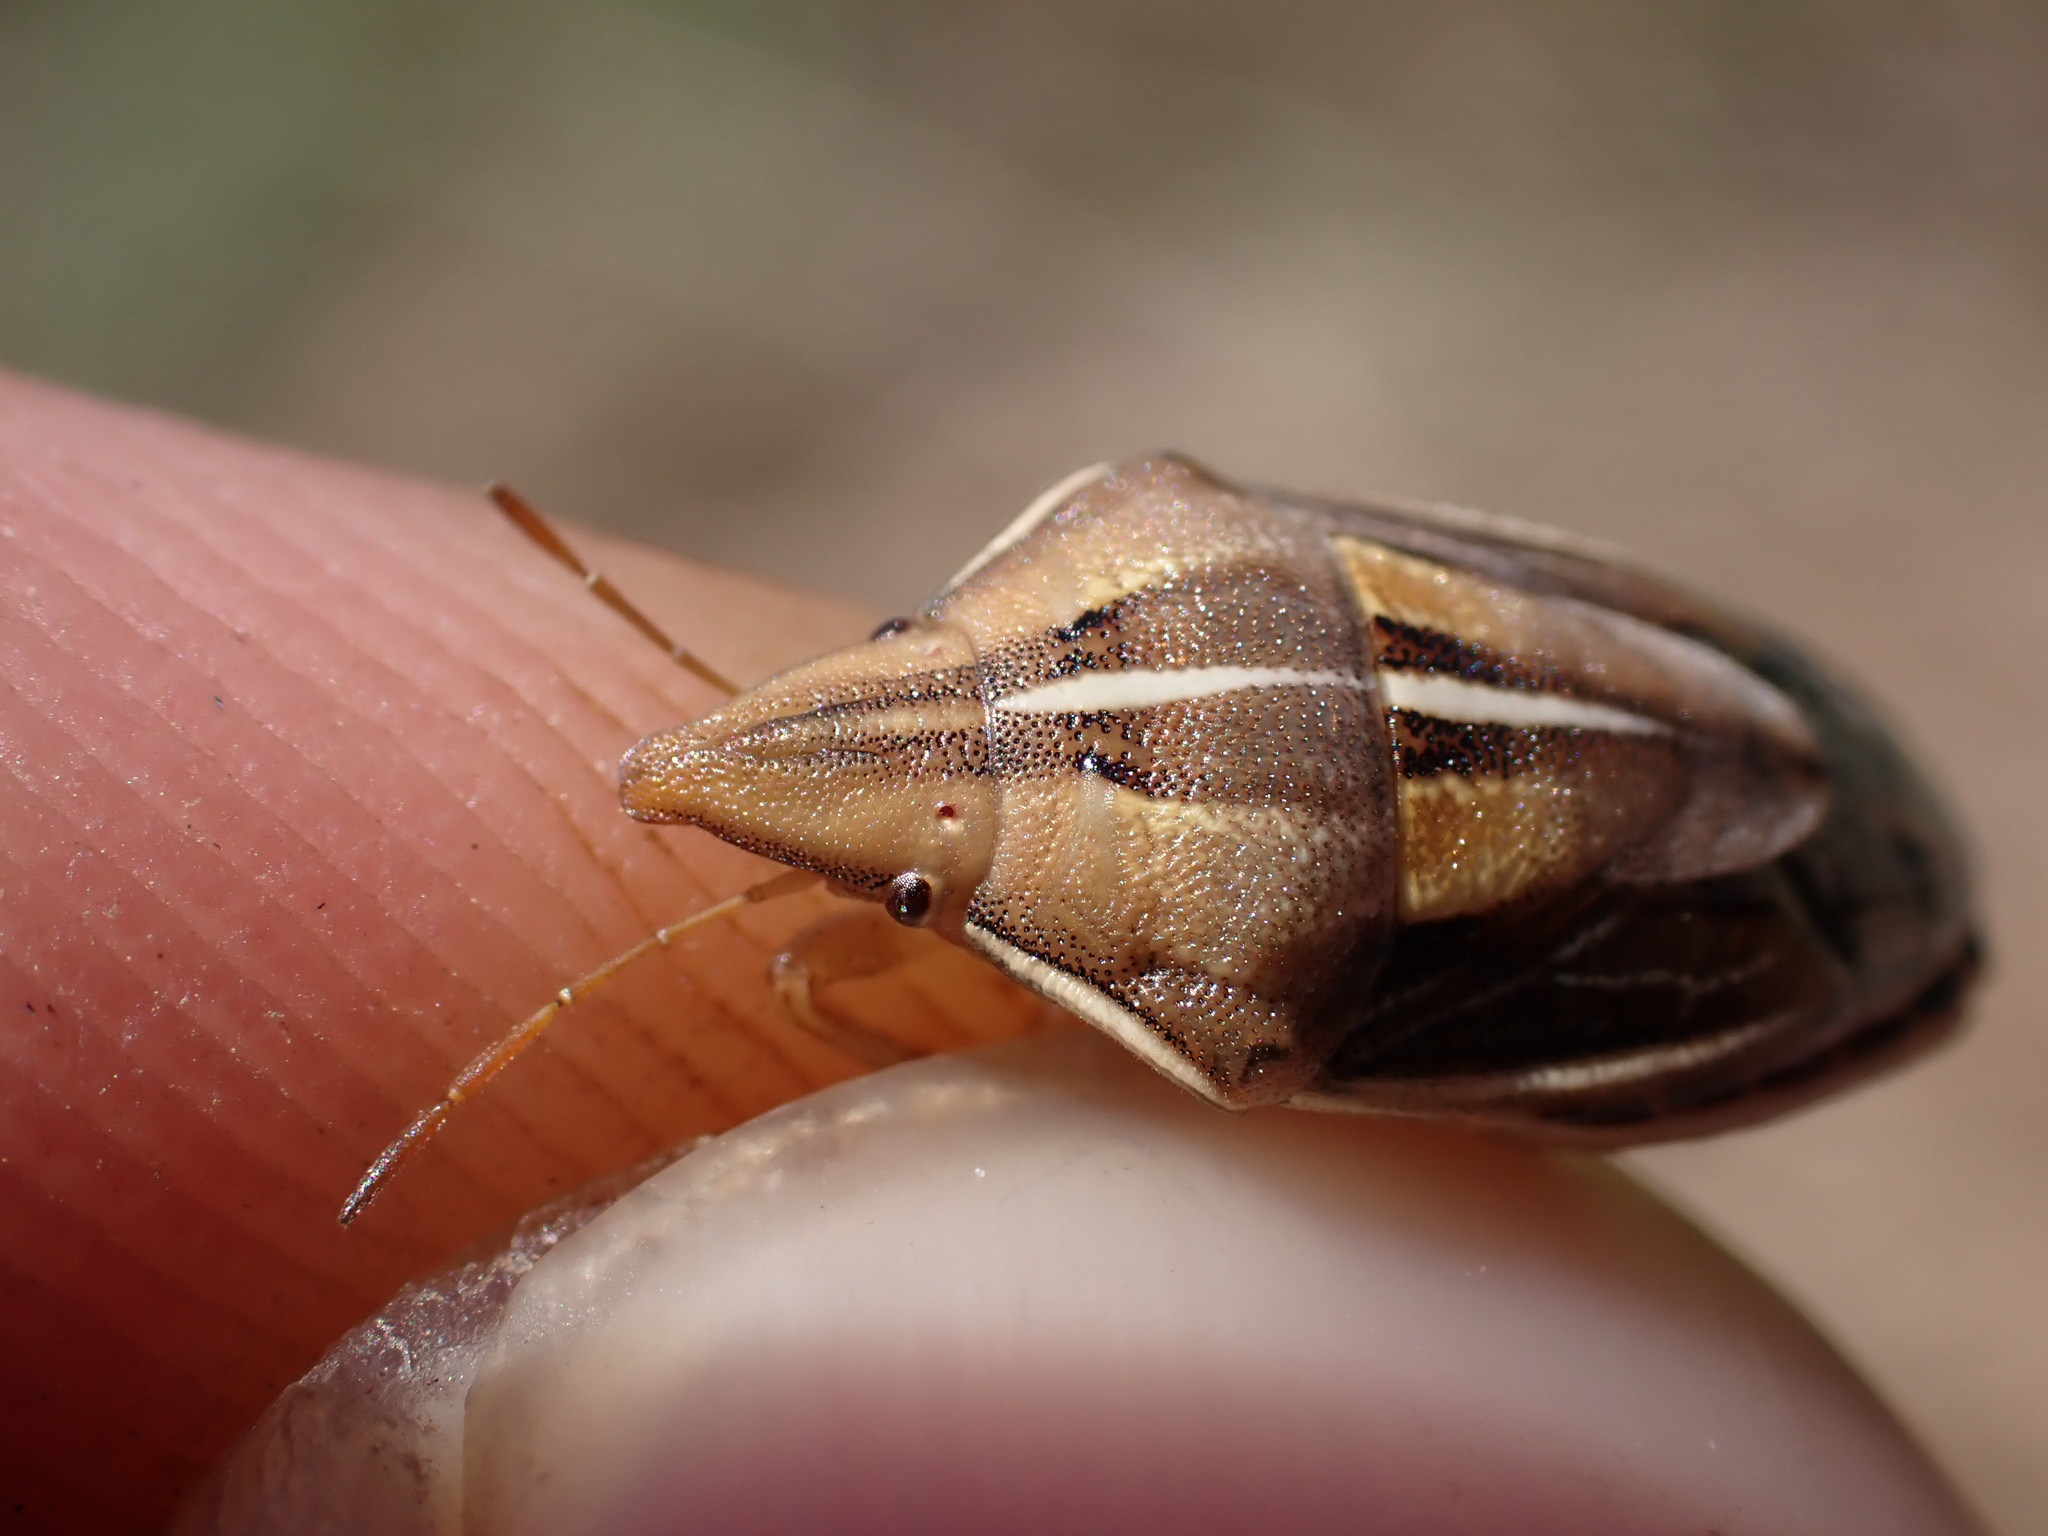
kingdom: Animalia
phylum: Arthropoda
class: Insecta
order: Hemiptera
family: Pentatomidae
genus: Aelia
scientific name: Aelia rostrata
